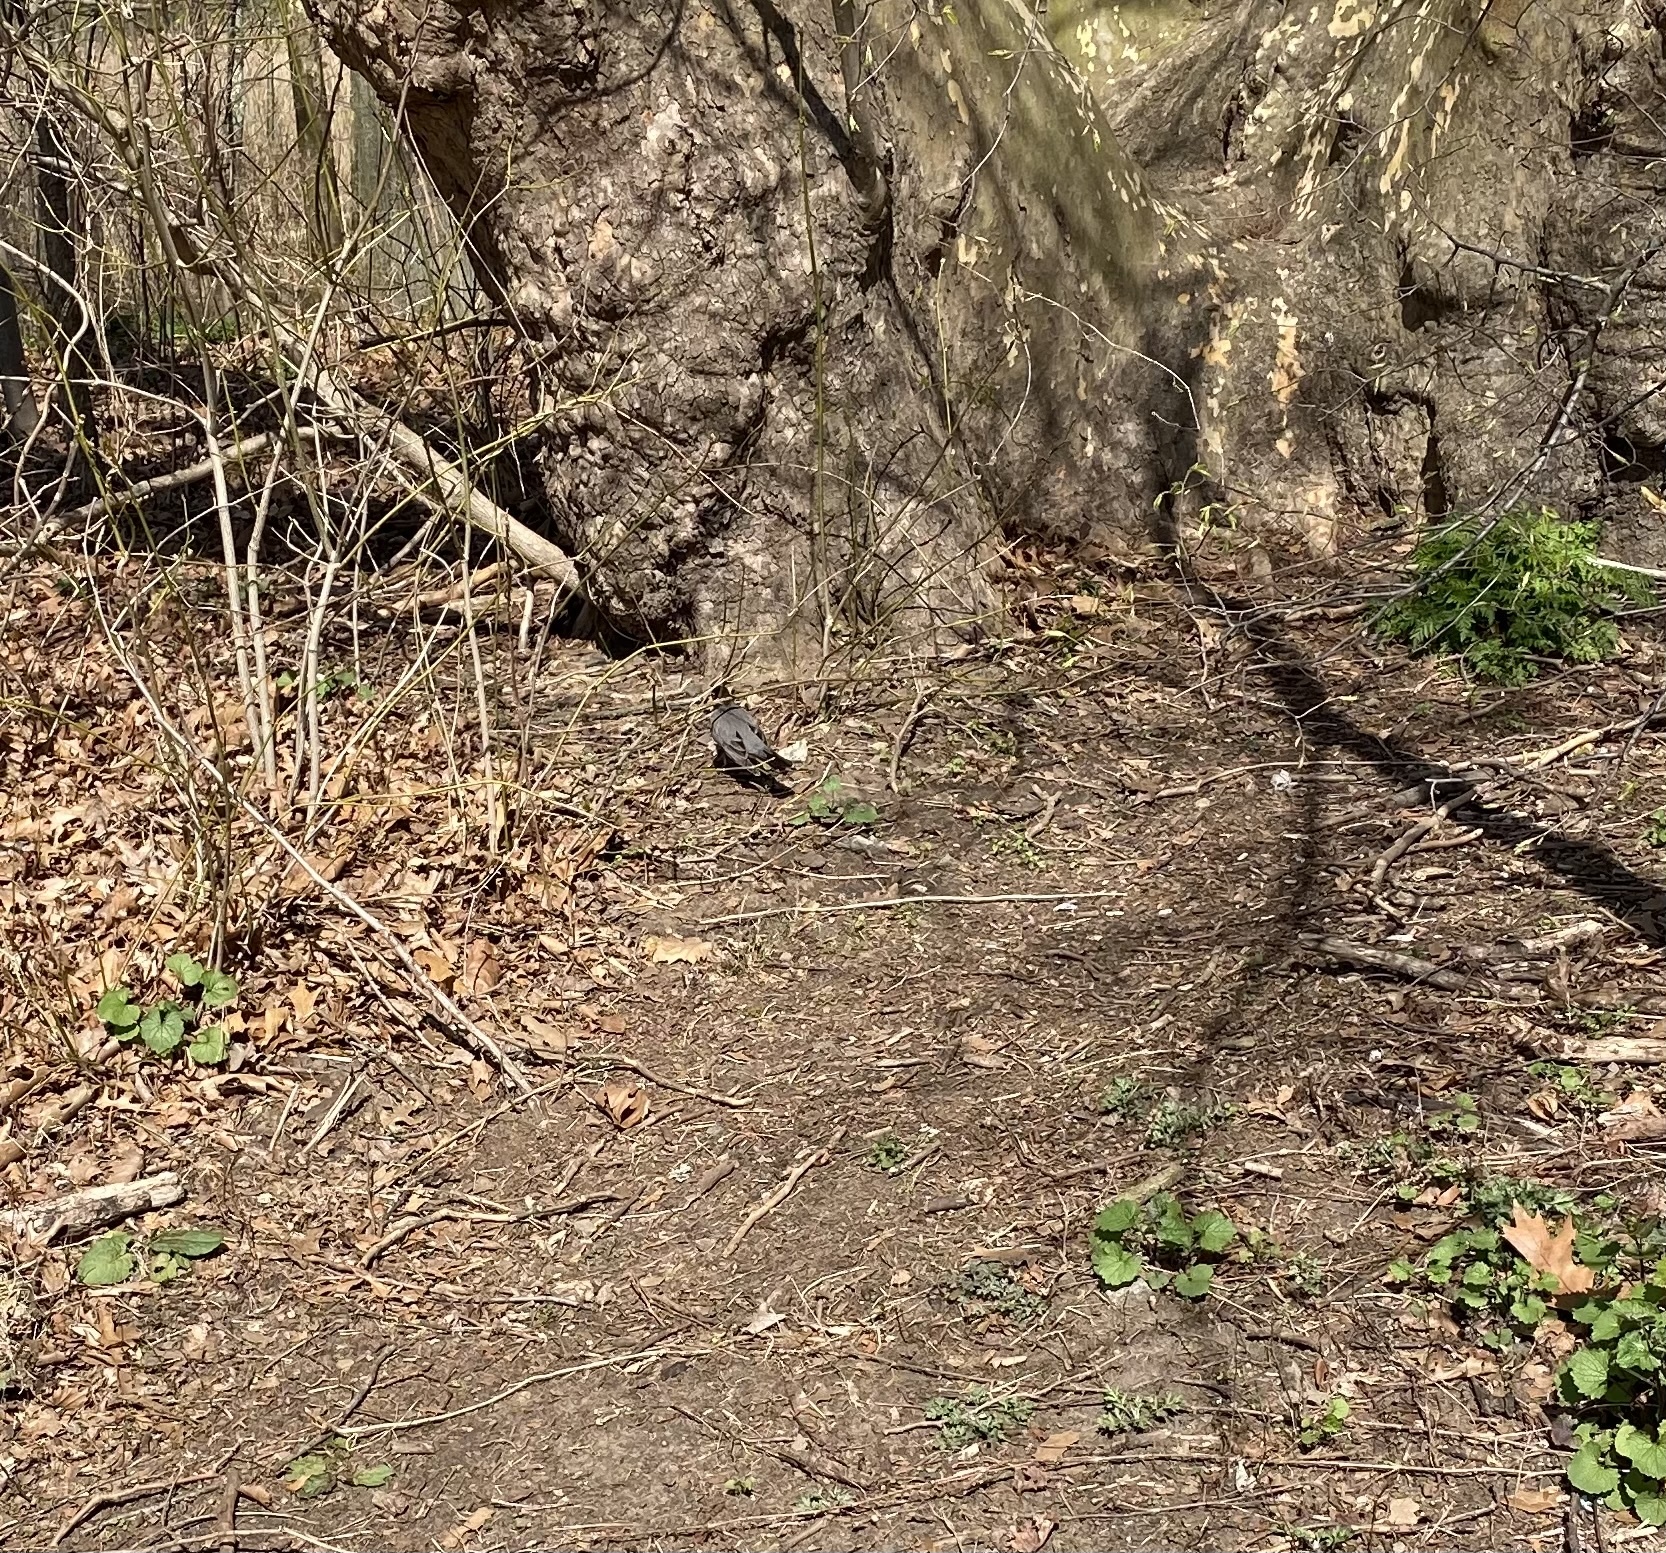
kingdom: Animalia
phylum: Chordata
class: Aves
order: Passeriformes
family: Turdidae
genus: Turdus
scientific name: Turdus migratorius
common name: American robin
